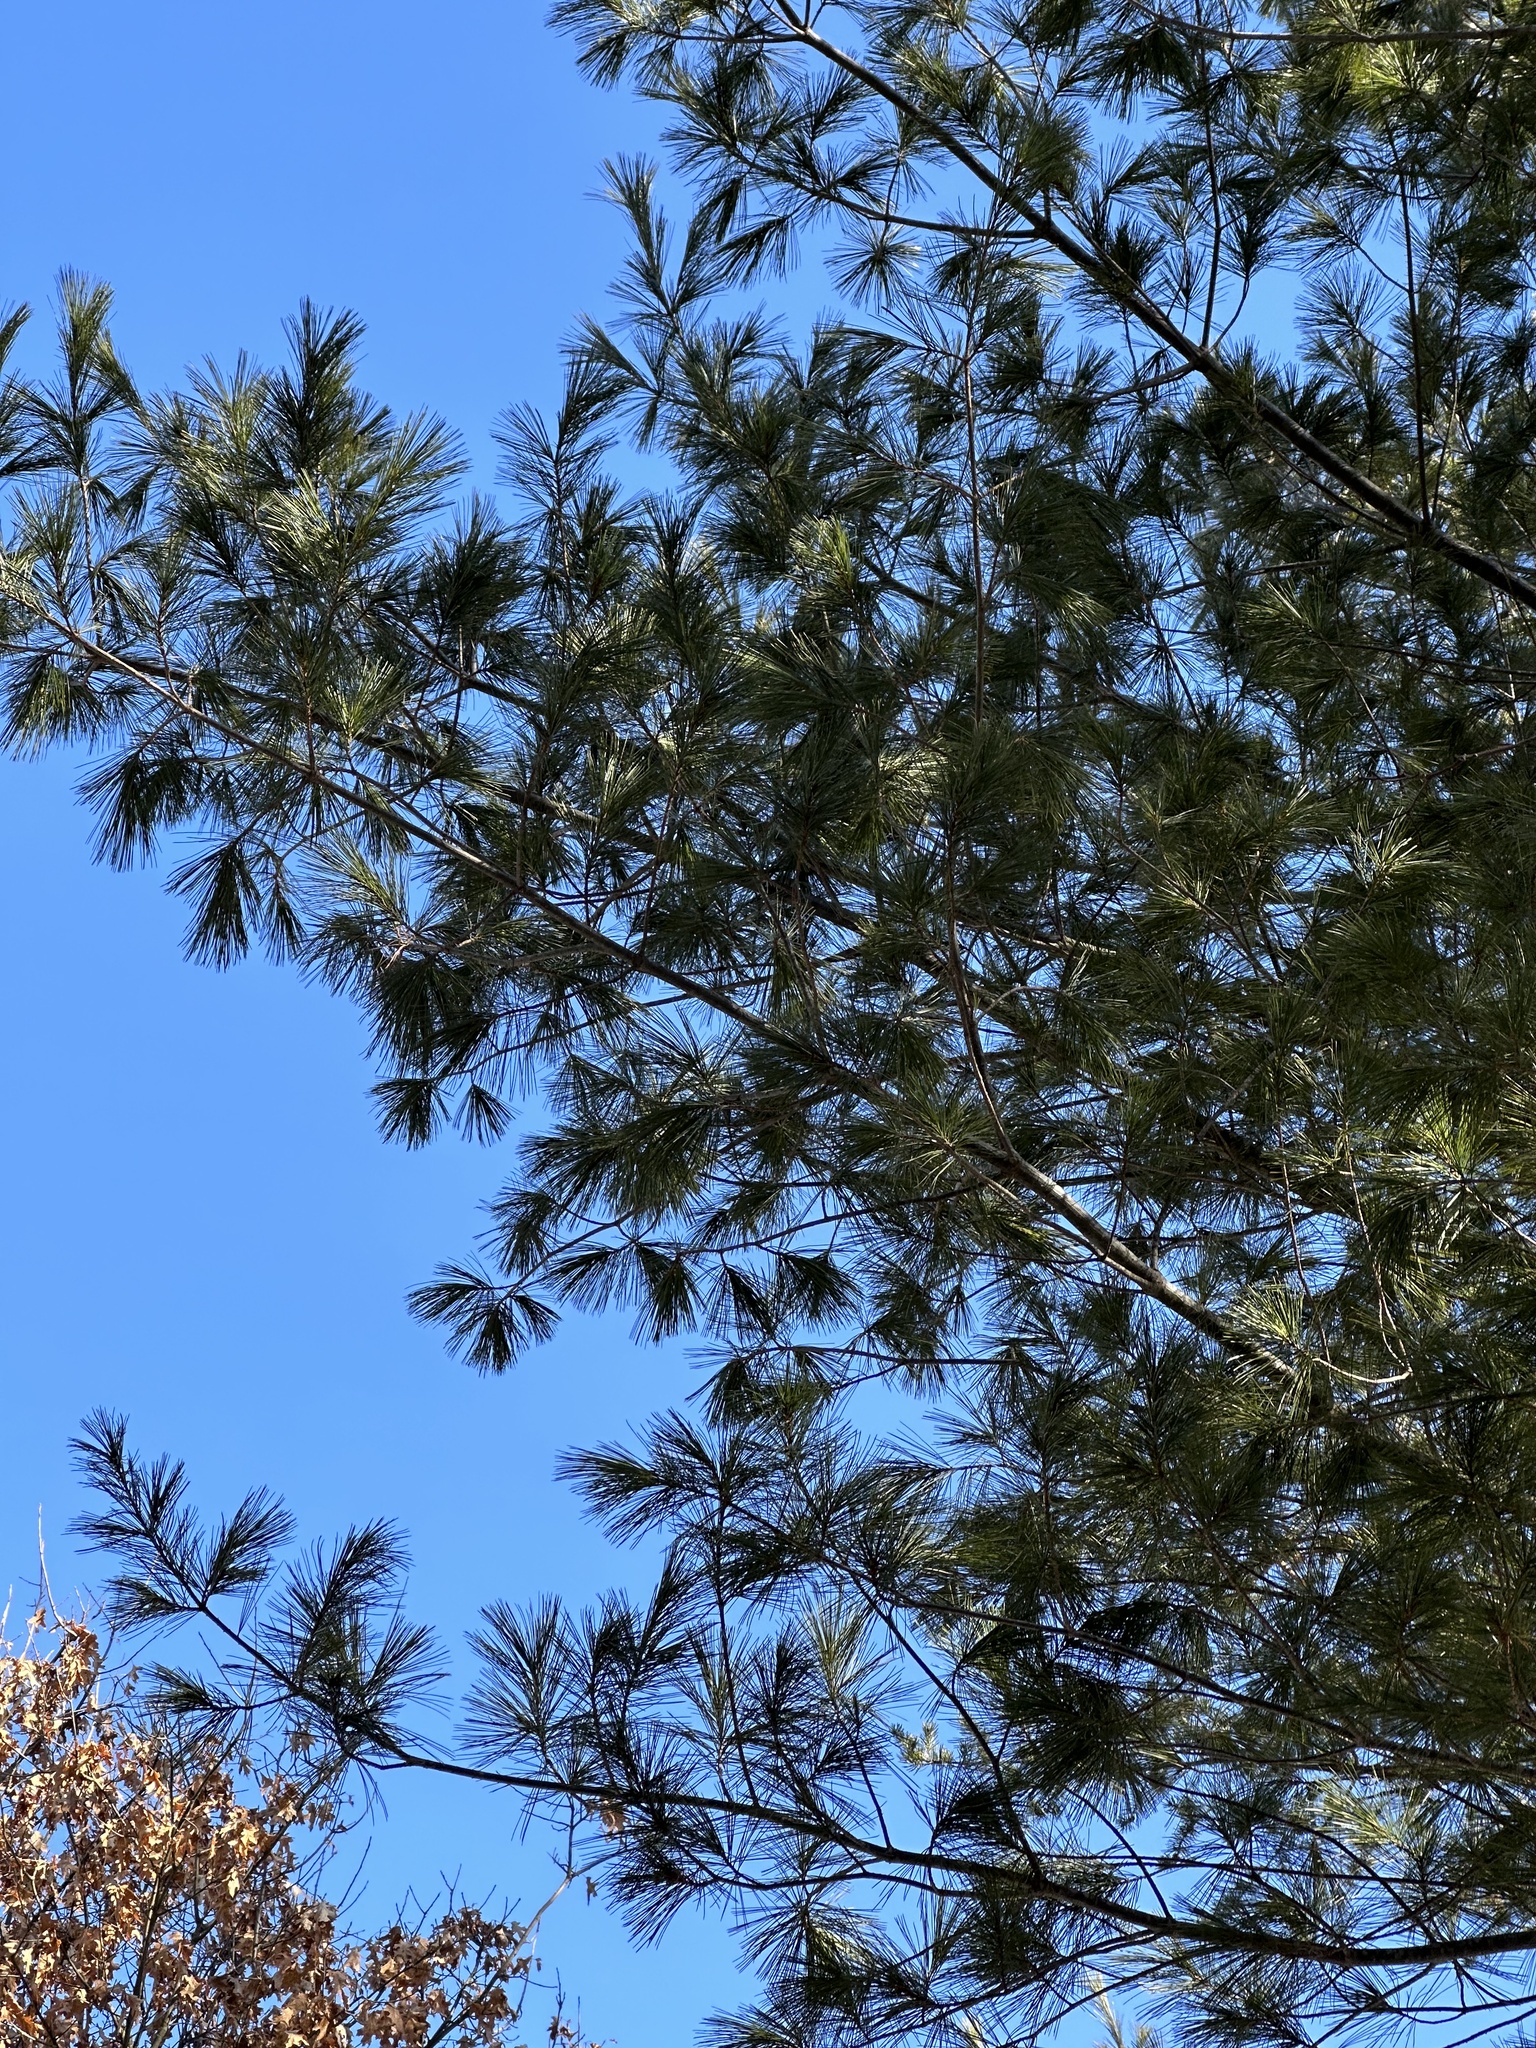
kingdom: Plantae
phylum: Tracheophyta
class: Pinopsida
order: Pinales
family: Pinaceae
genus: Pinus
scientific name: Pinus strobus
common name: Weymouth pine
